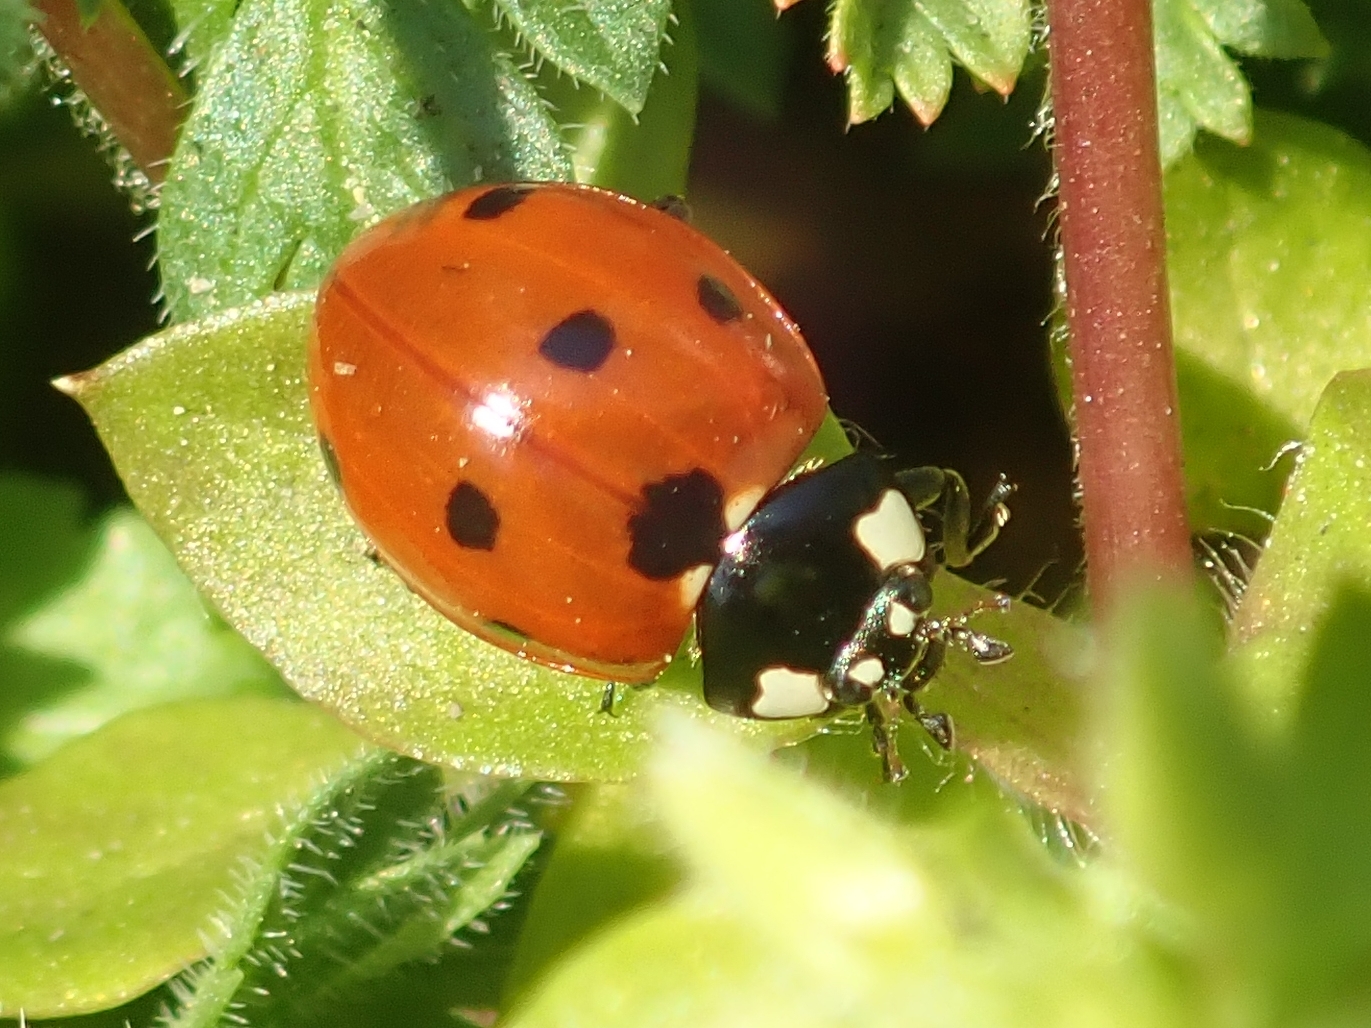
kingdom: Animalia
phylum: Arthropoda
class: Insecta
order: Coleoptera
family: Coccinellidae
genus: Coccinella
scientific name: Coccinella septempunctata
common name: Sevenspotted lady beetle
